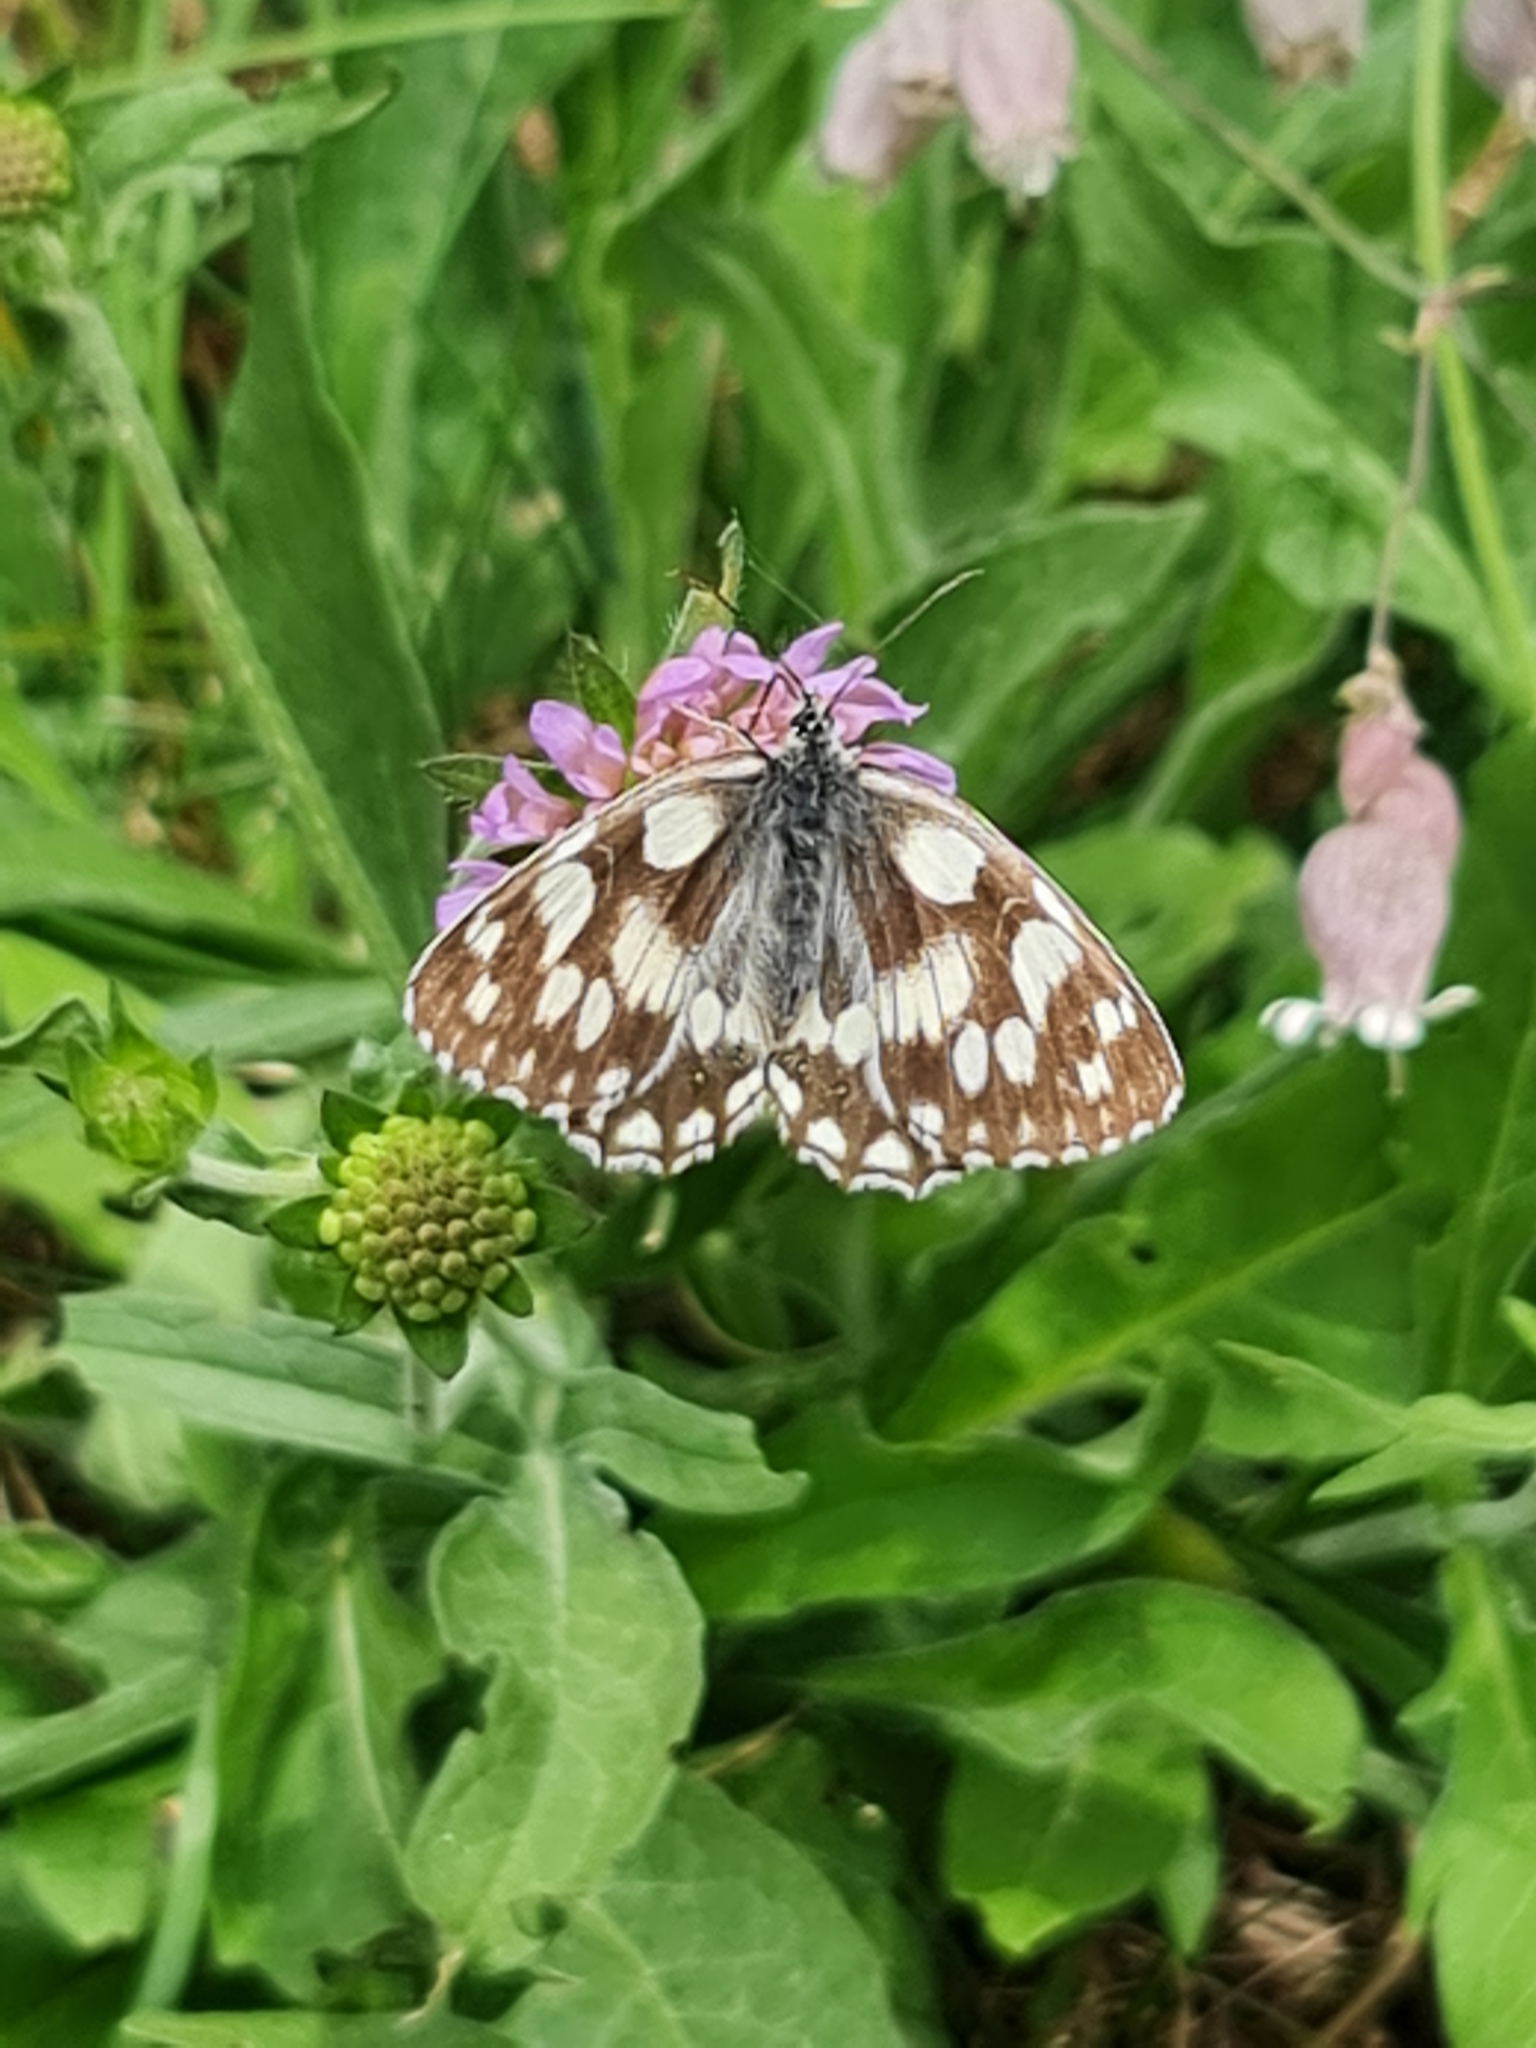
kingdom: Animalia
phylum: Arthropoda
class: Insecta
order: Lepidoptera
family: Nymphalidae
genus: Melanargia
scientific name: Melanargia galathea
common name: Marbled white
